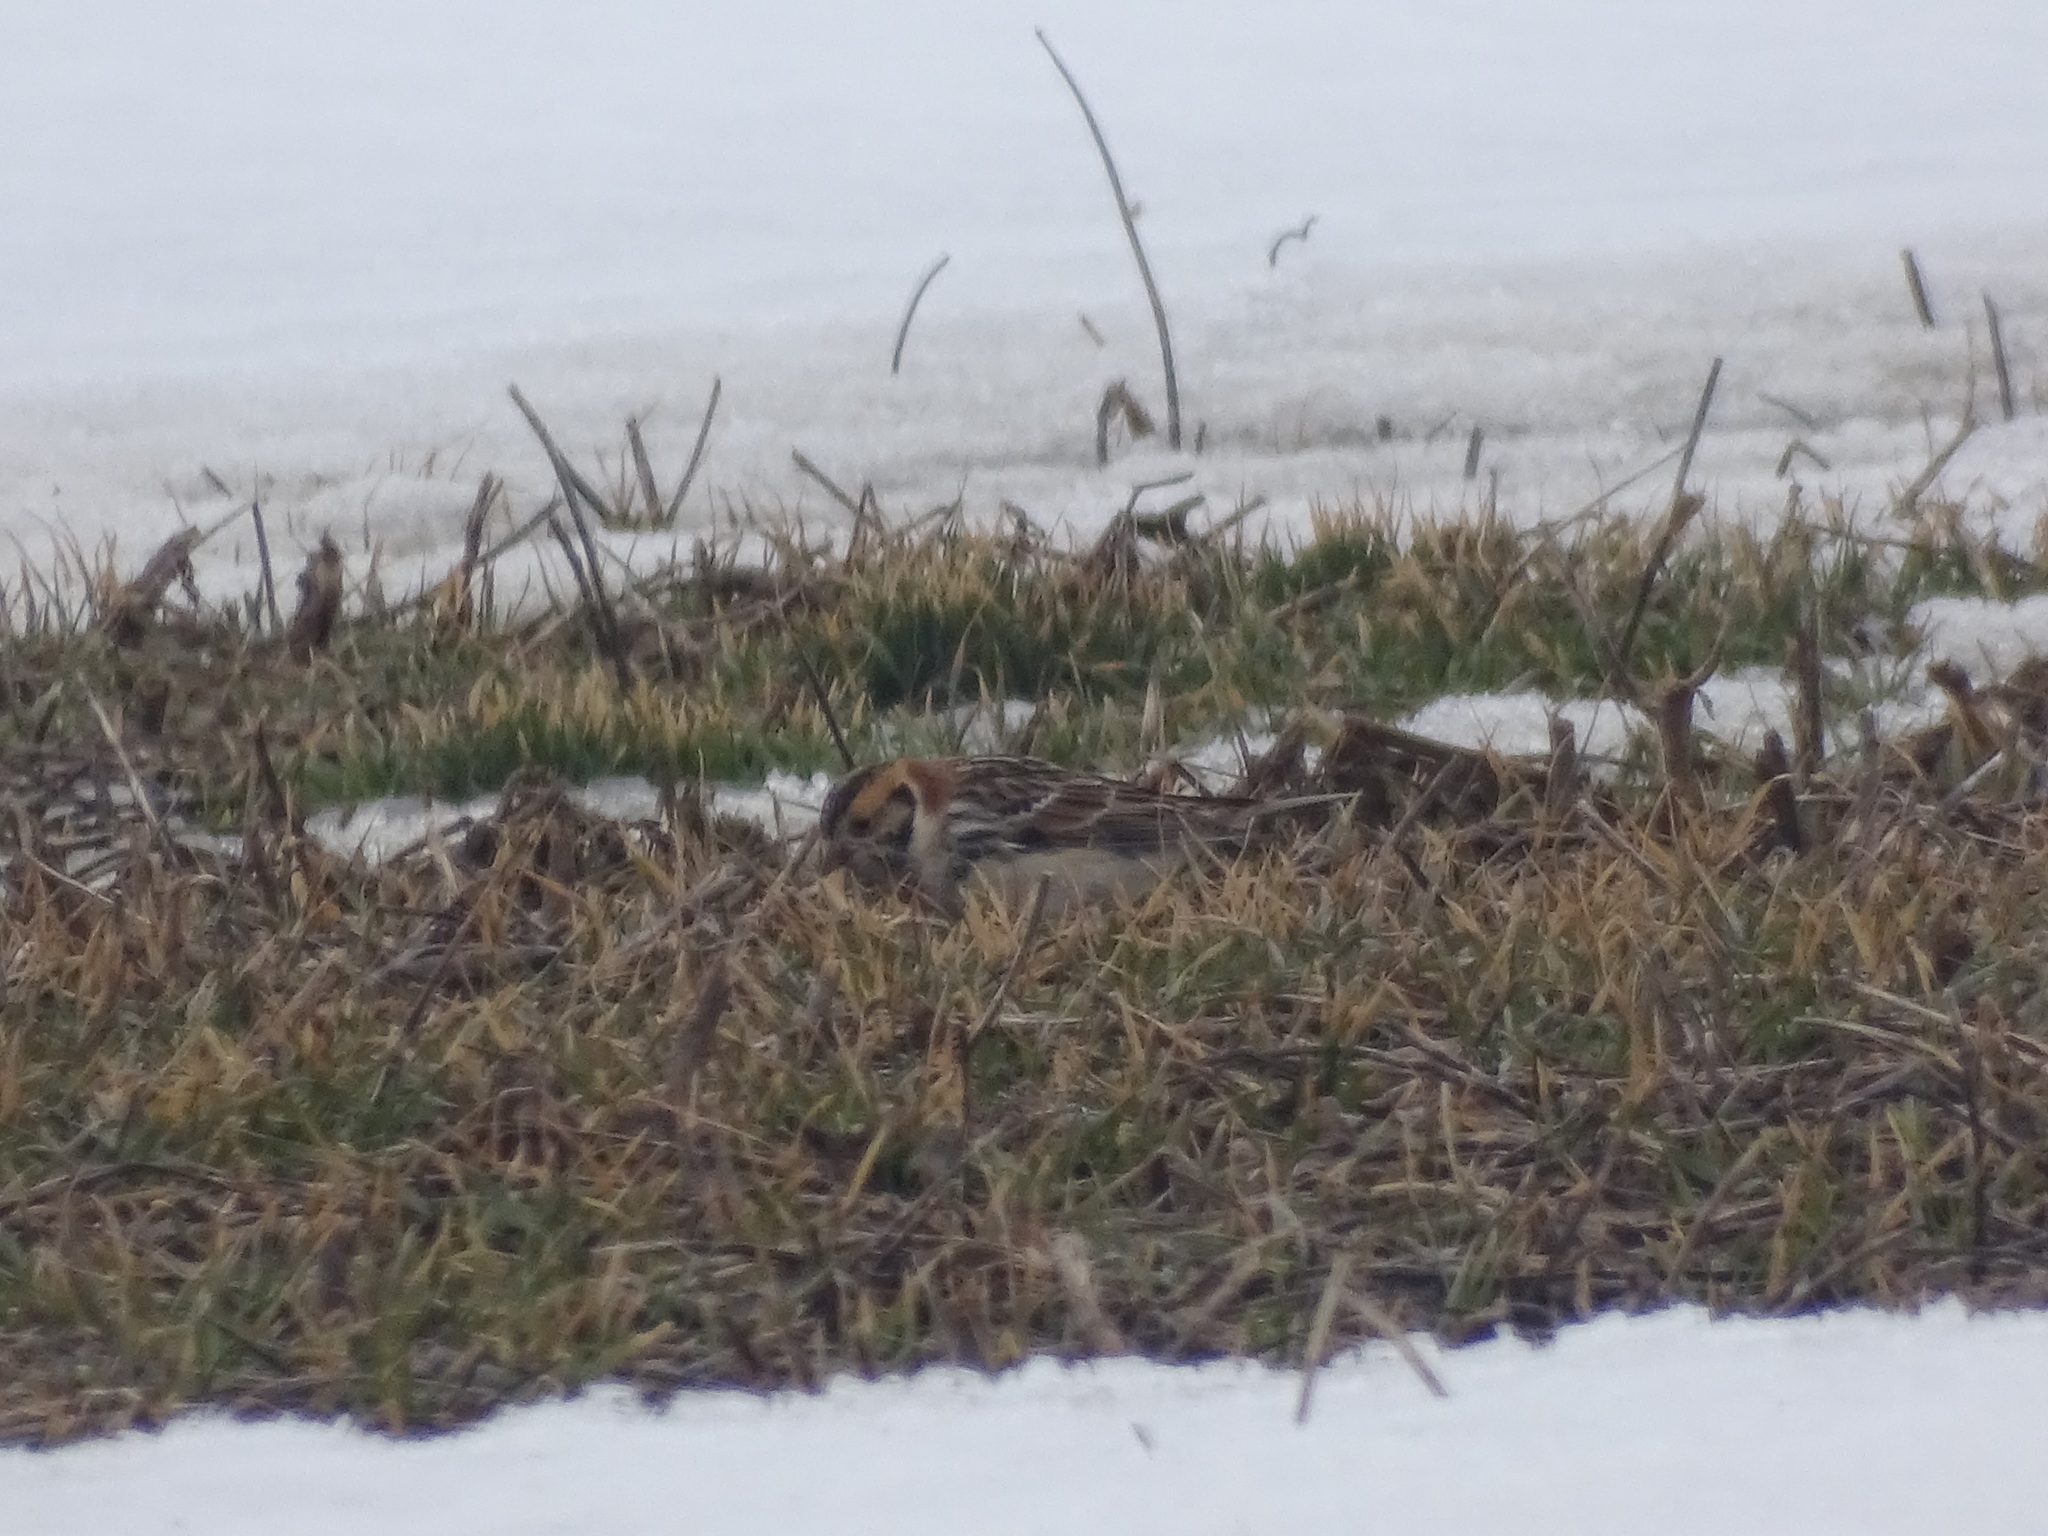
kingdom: Animalia
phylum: Chordata
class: Aves
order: Passeriformes
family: Calcariidae
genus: Calcarius
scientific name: Calcarius lapponicus
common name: Lapland longspur
